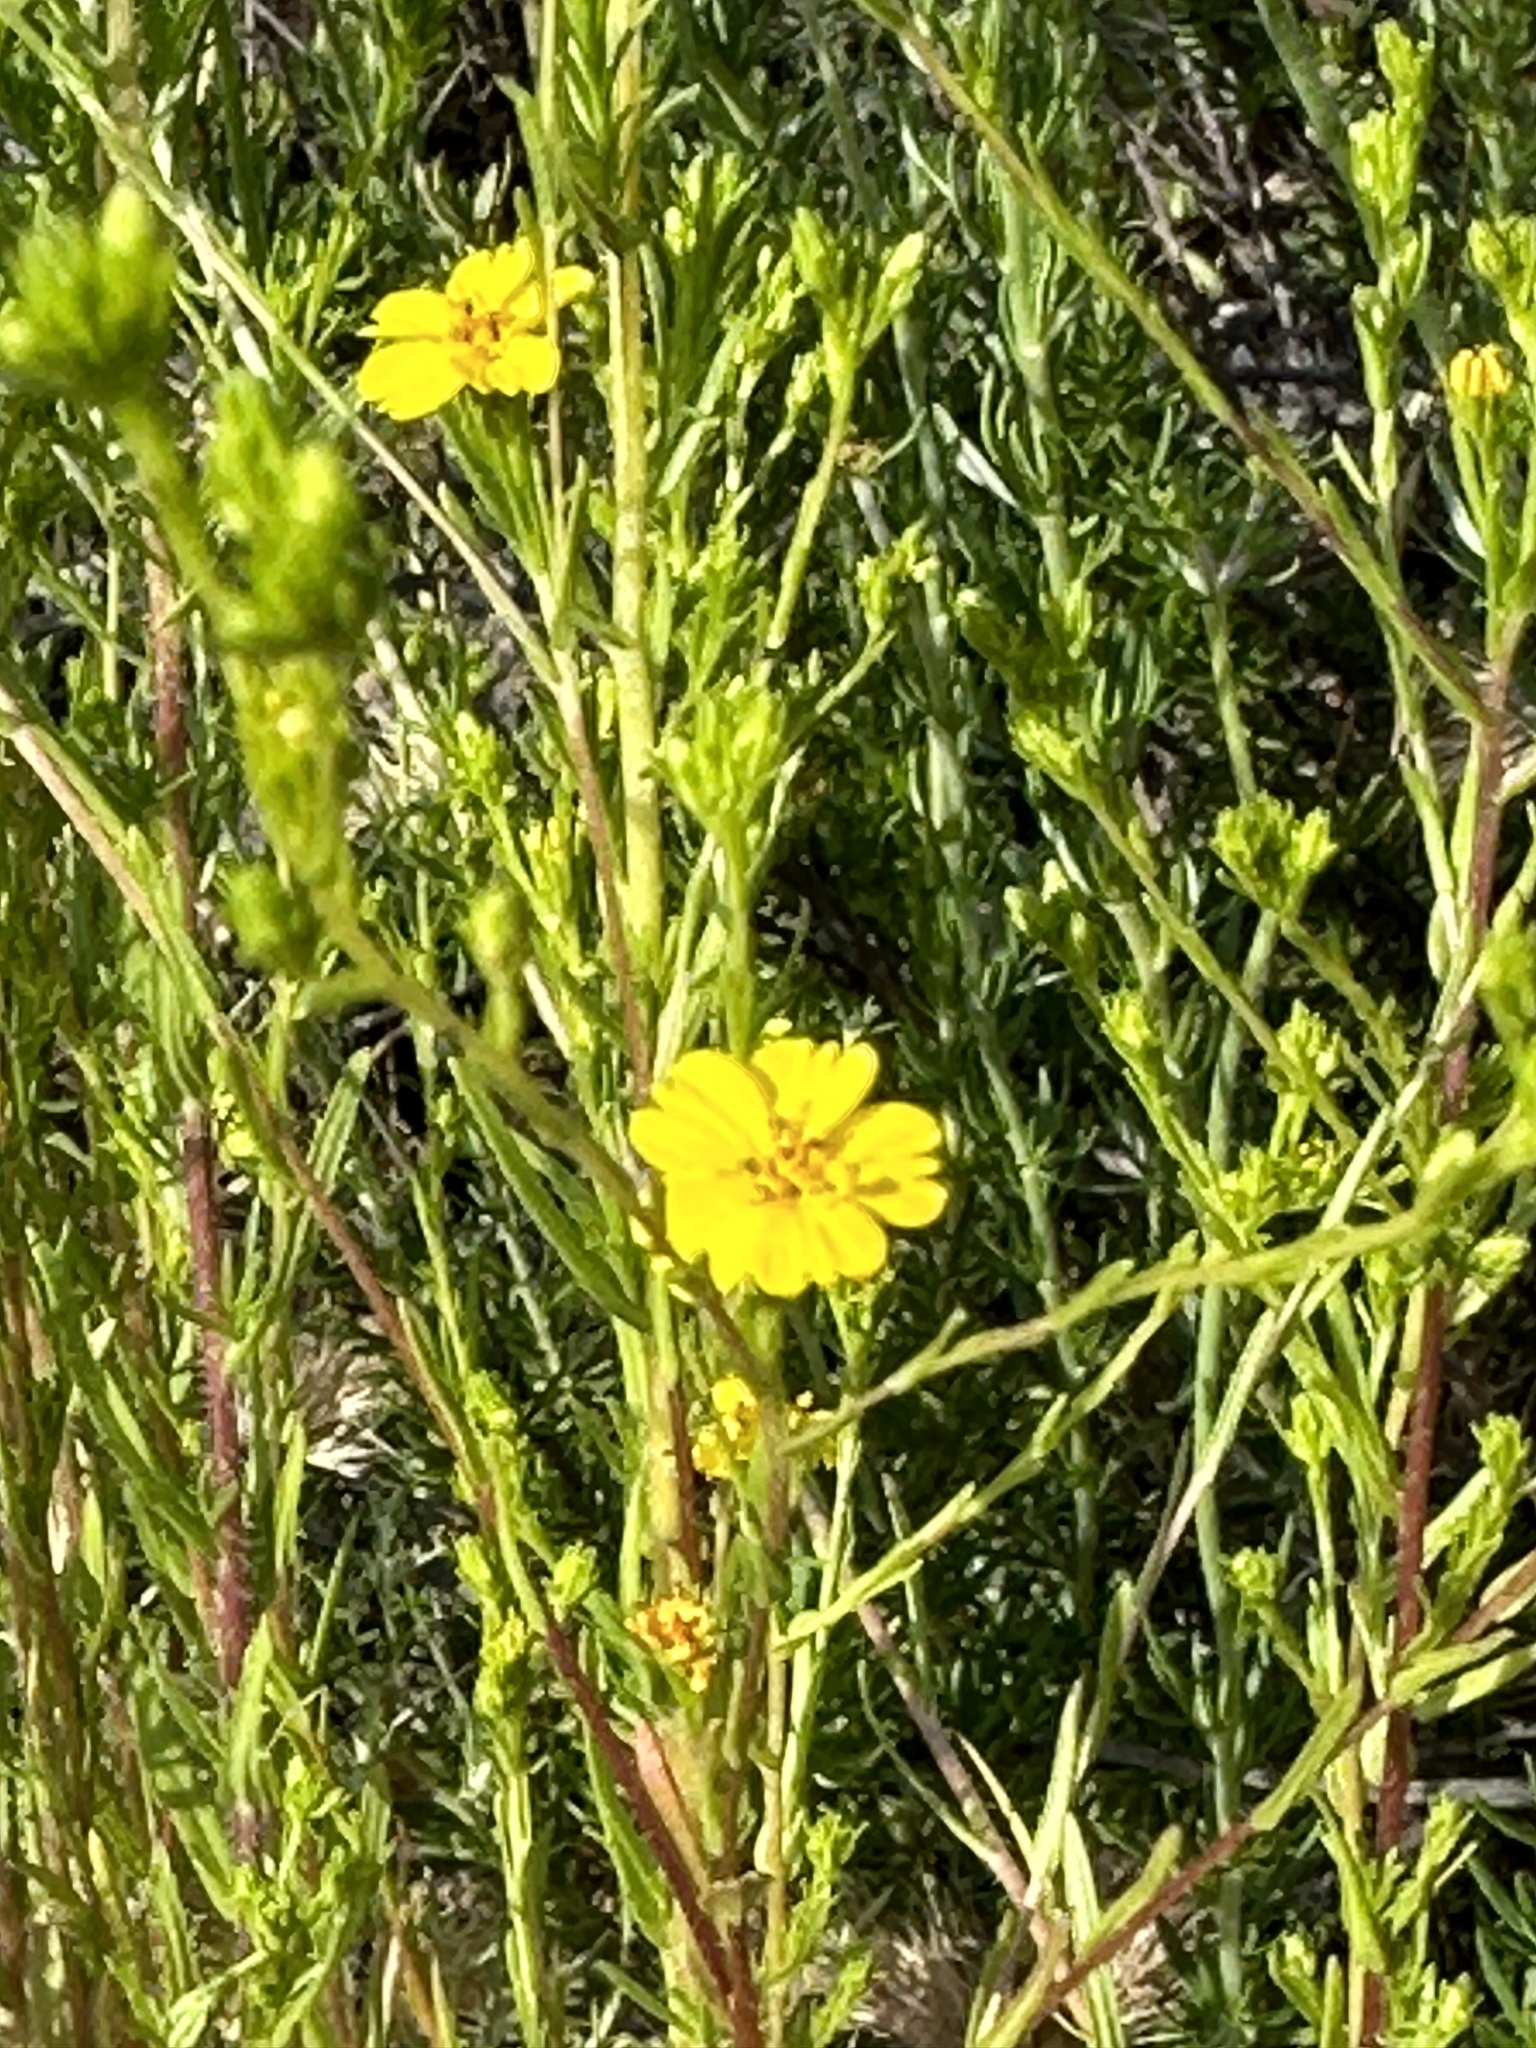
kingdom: Plantae
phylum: Tracheophyta
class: Magnoliopsida
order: Asterales
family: Asteraceae
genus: Deinandra
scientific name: Deinandra fasciculata
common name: Clustered tarweed
